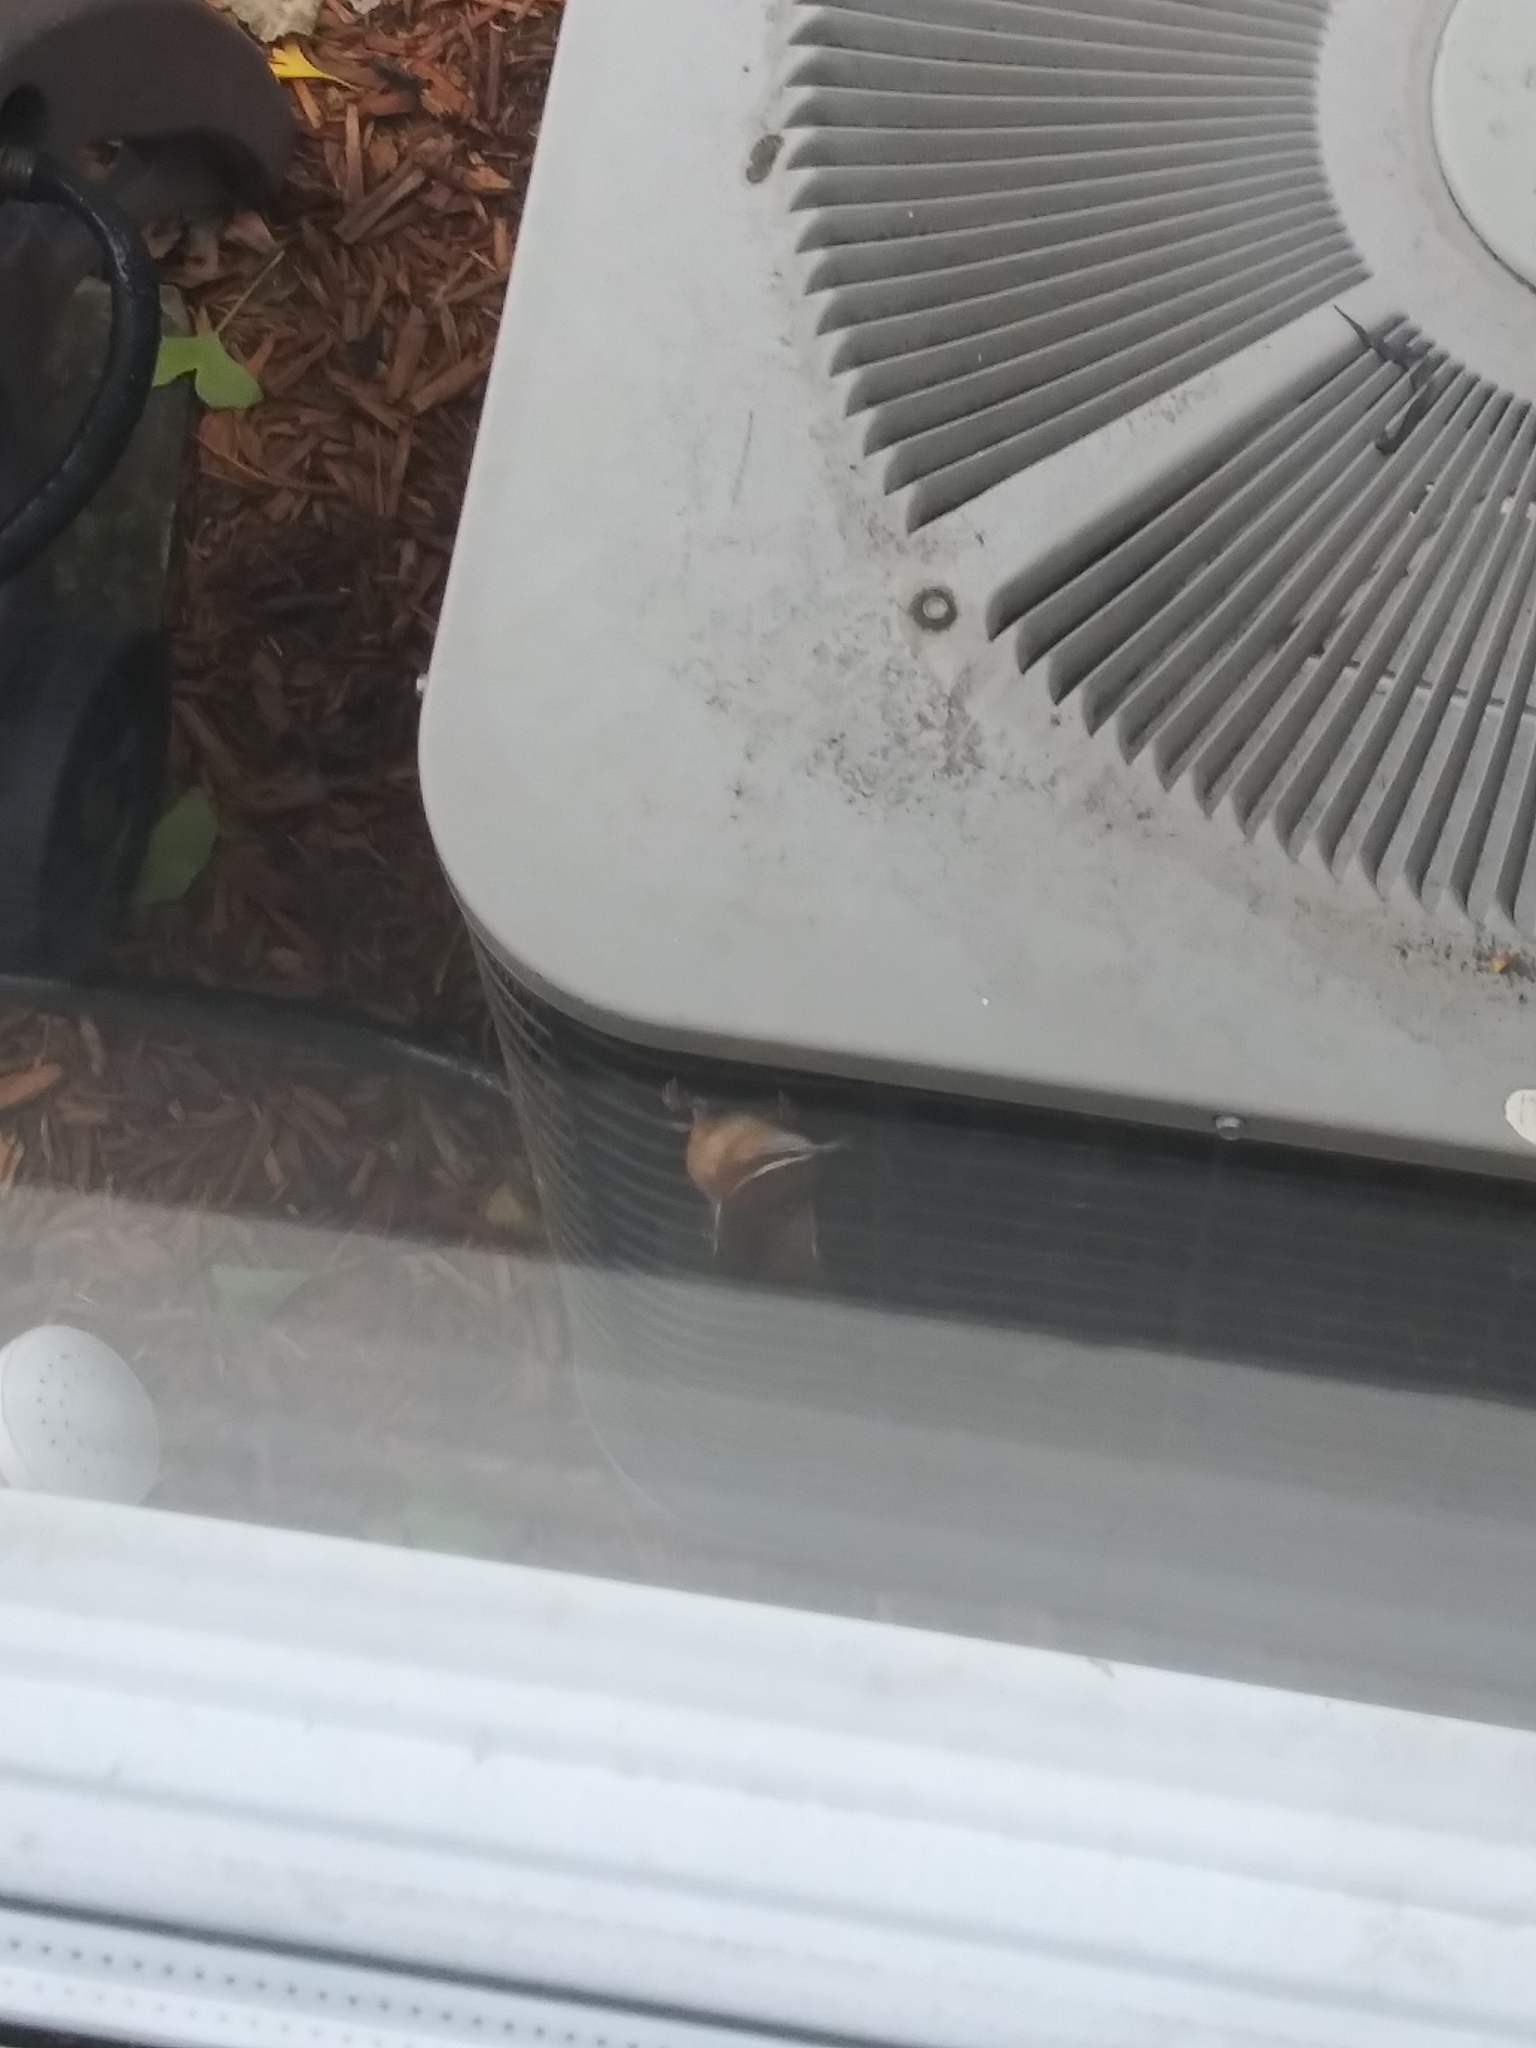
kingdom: Animalia
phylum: Chordata
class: Aves
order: Passeriformes
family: Troglodytidae
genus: Thryothorus
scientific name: Thryothorus ludovicianus
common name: Carolina wren
